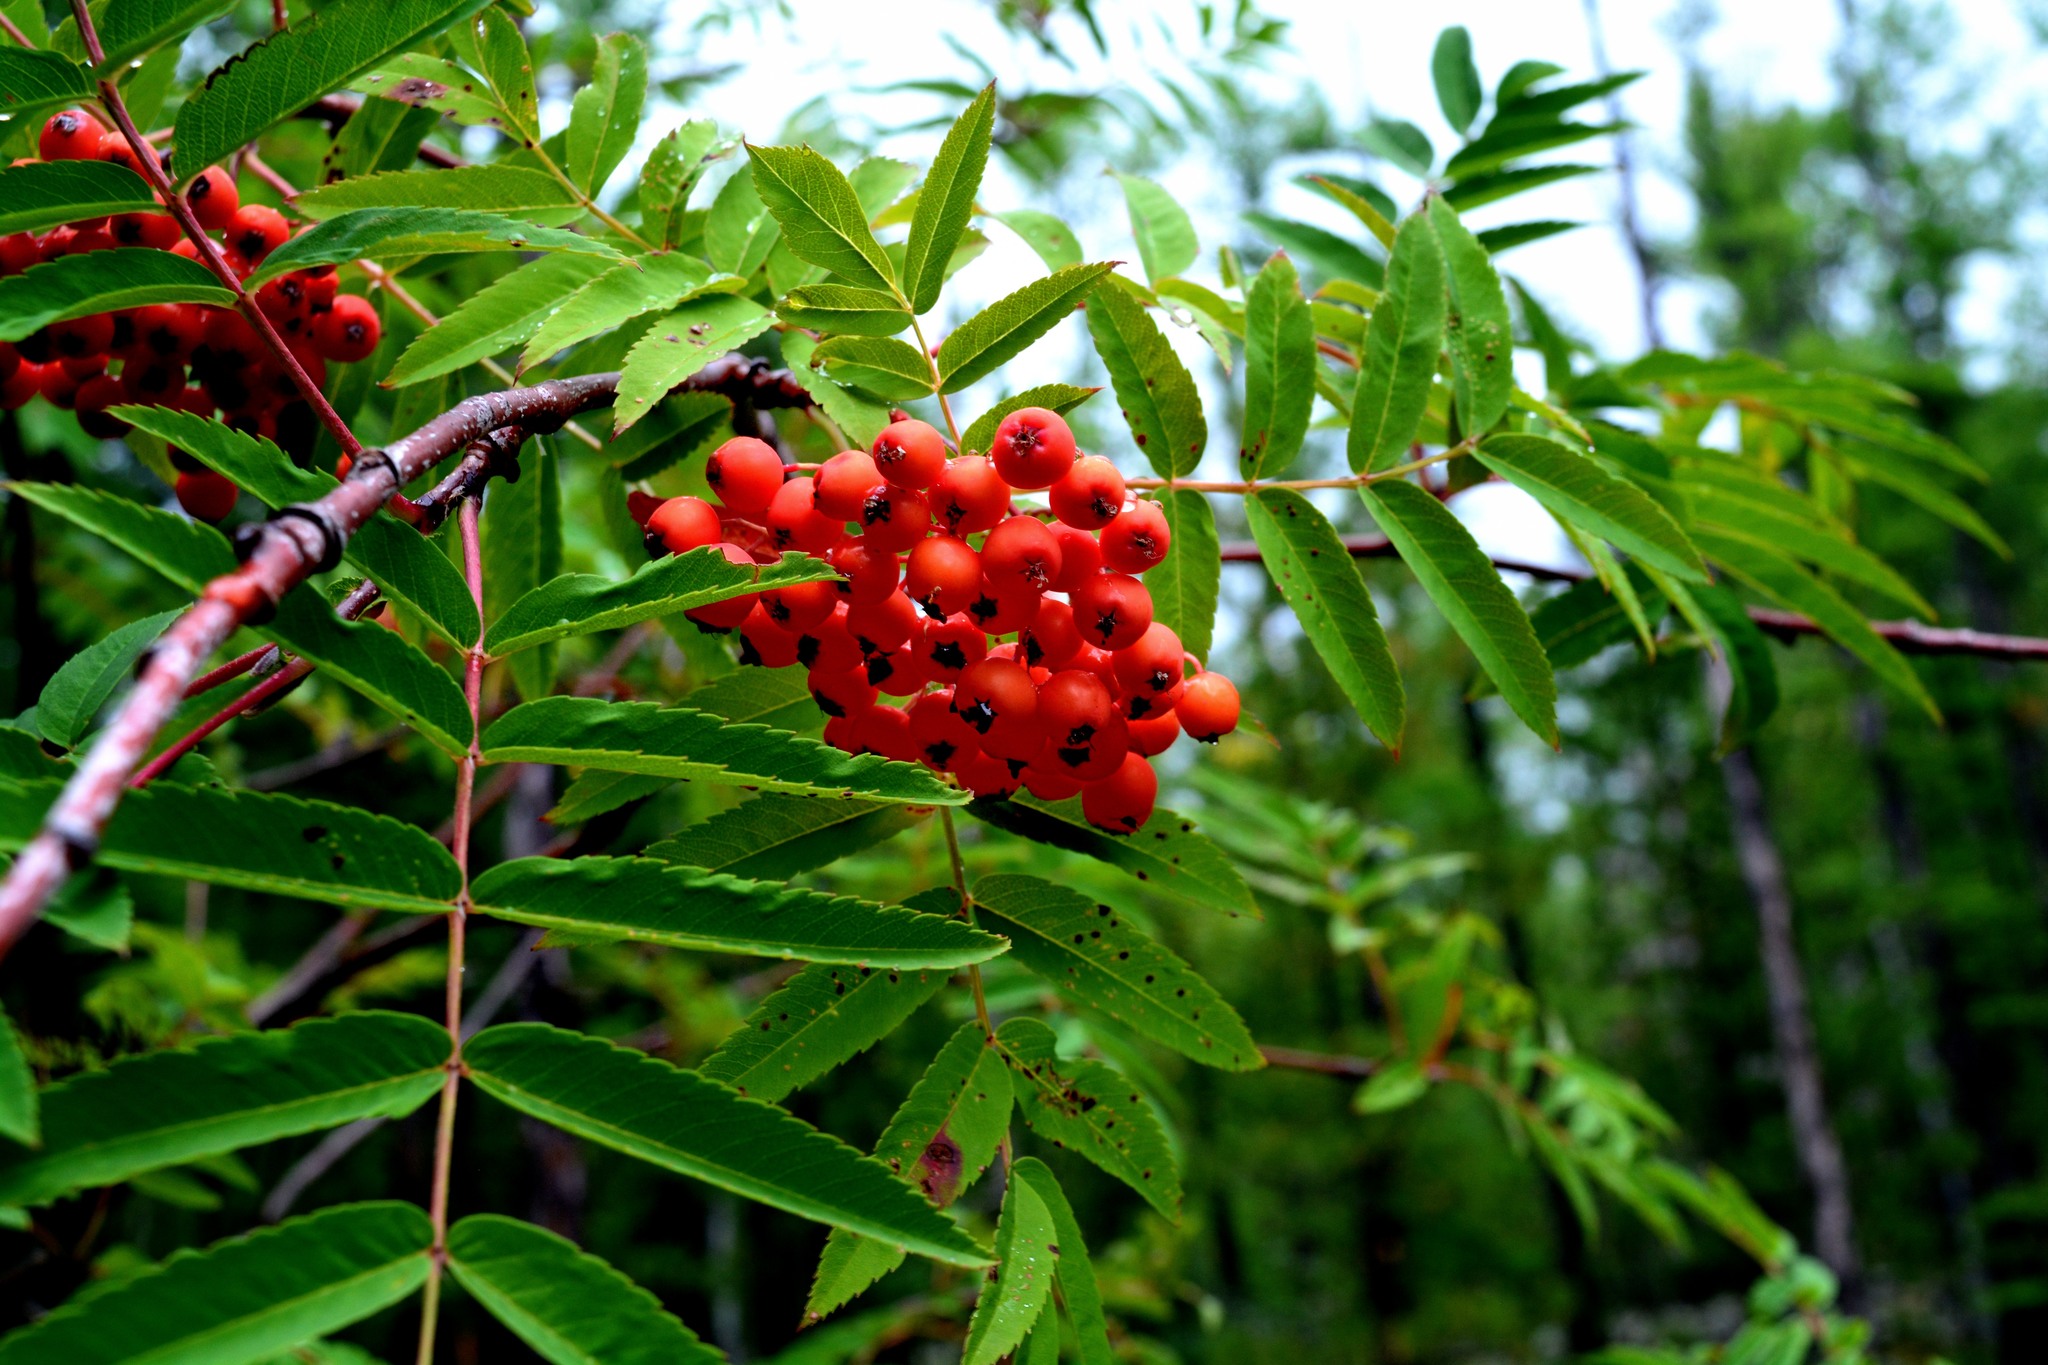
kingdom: Plantae
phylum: Tracheophyta
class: Magnoliopsida
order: Rosales
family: Rosaceae
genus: Sorbus
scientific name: Sorbus aucuparia
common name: Rowan
